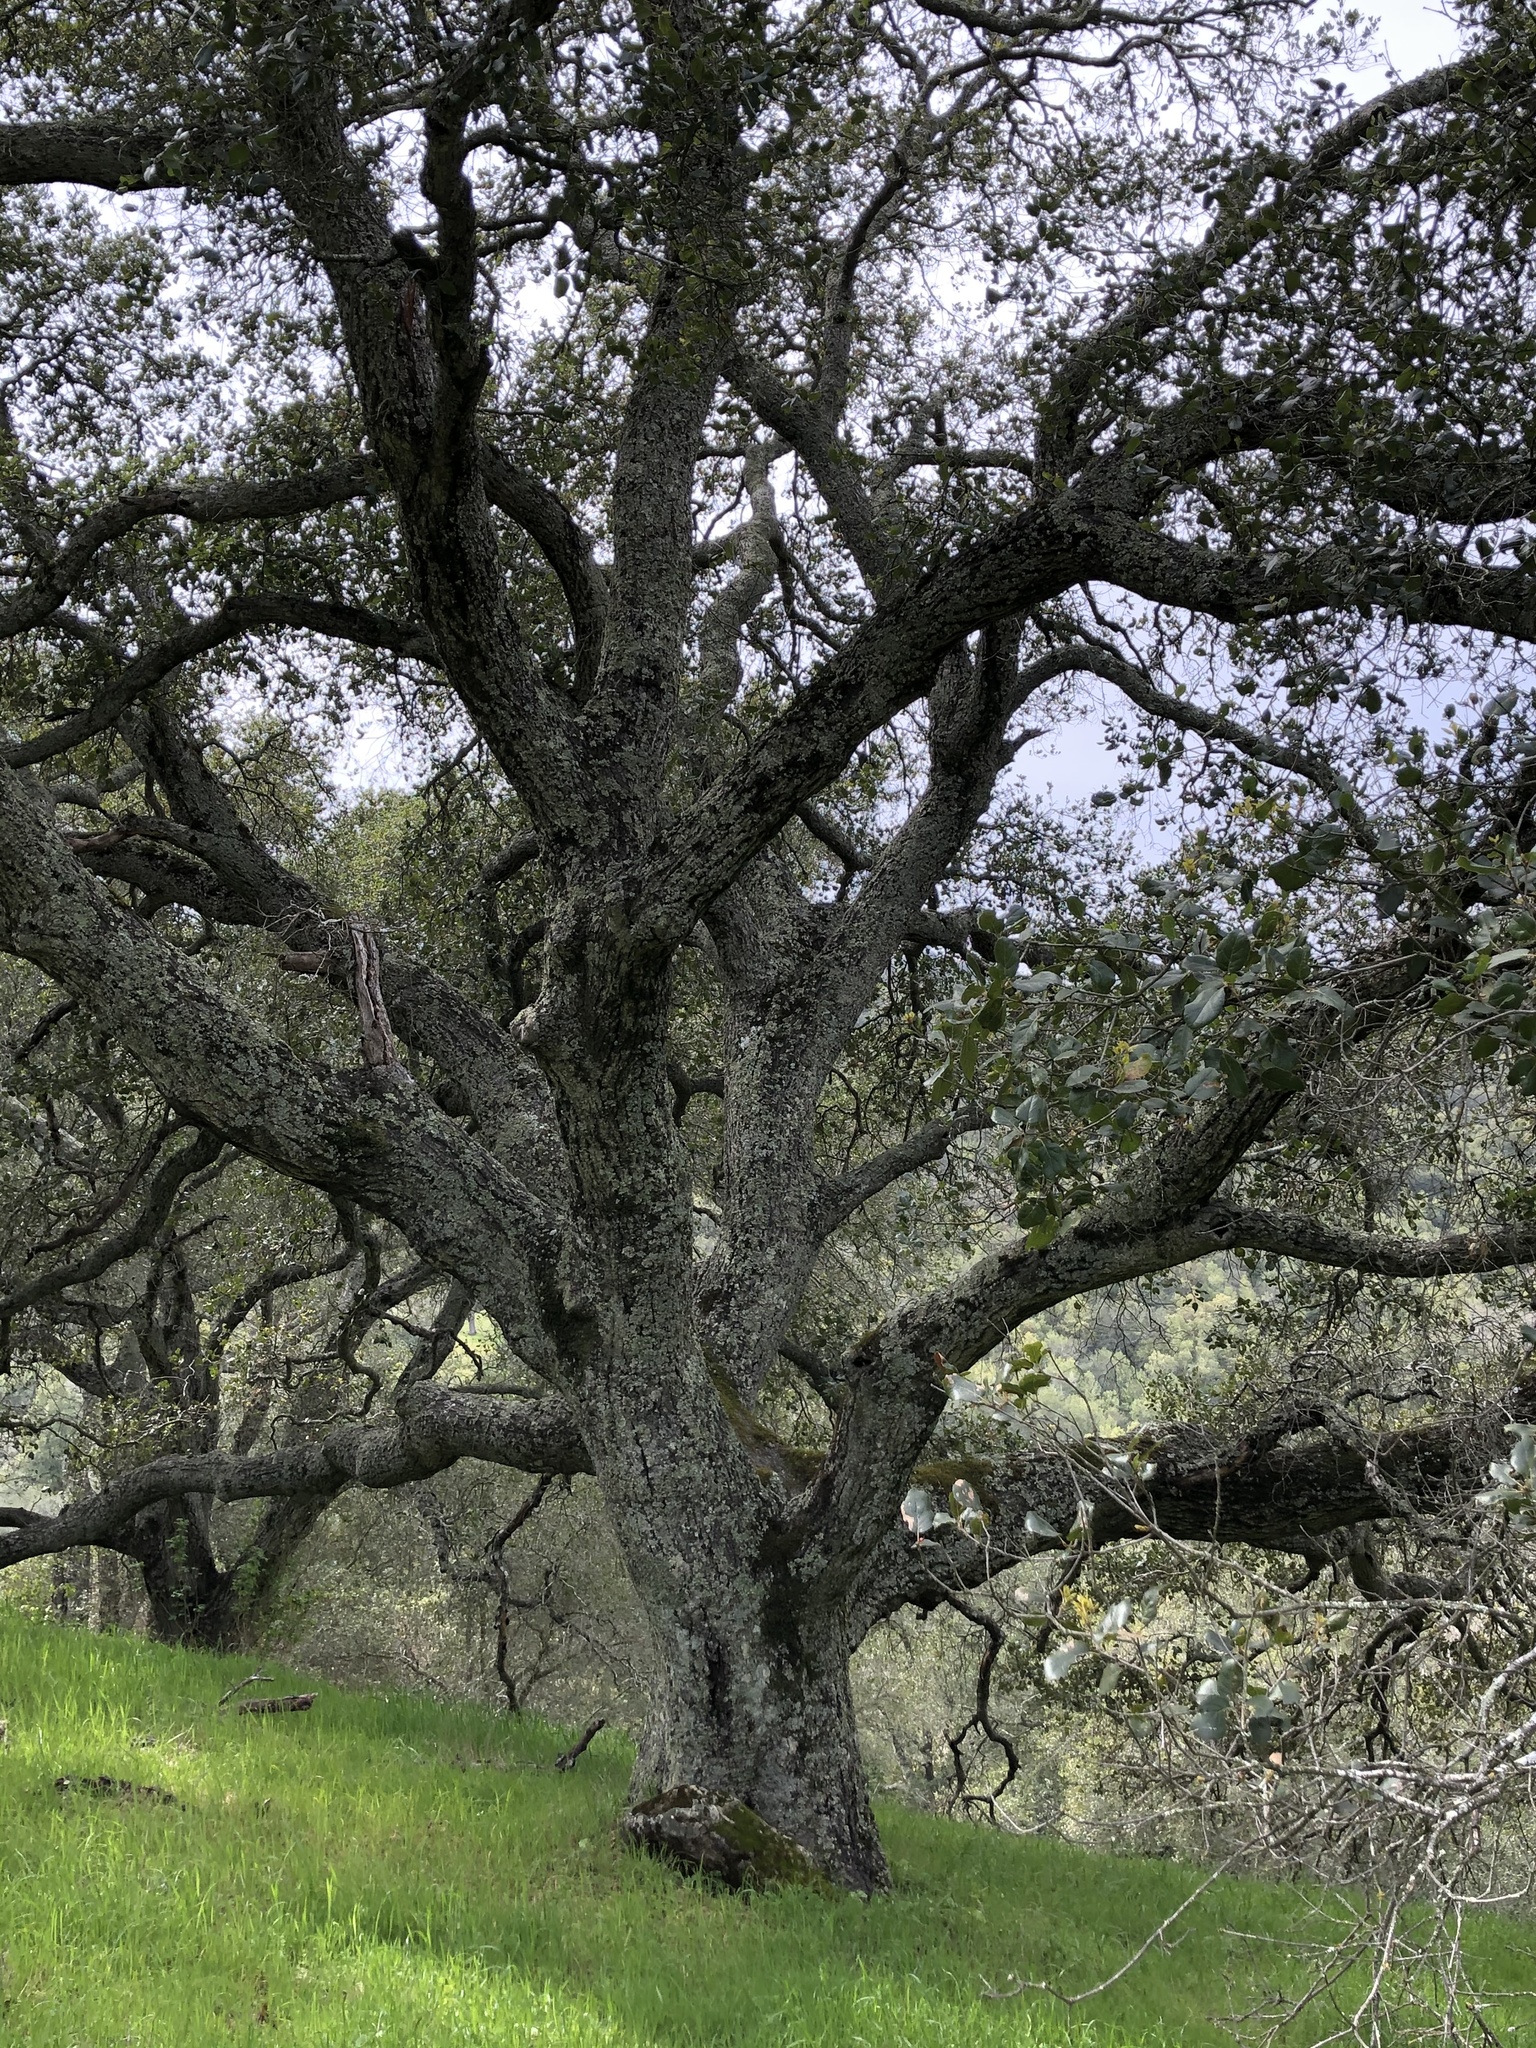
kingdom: Plantae
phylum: Tracheophyta
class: Magnoliopsida
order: Fagales
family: Fagaceae
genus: Quercus
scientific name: Quercus agrifolia
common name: California live oak
